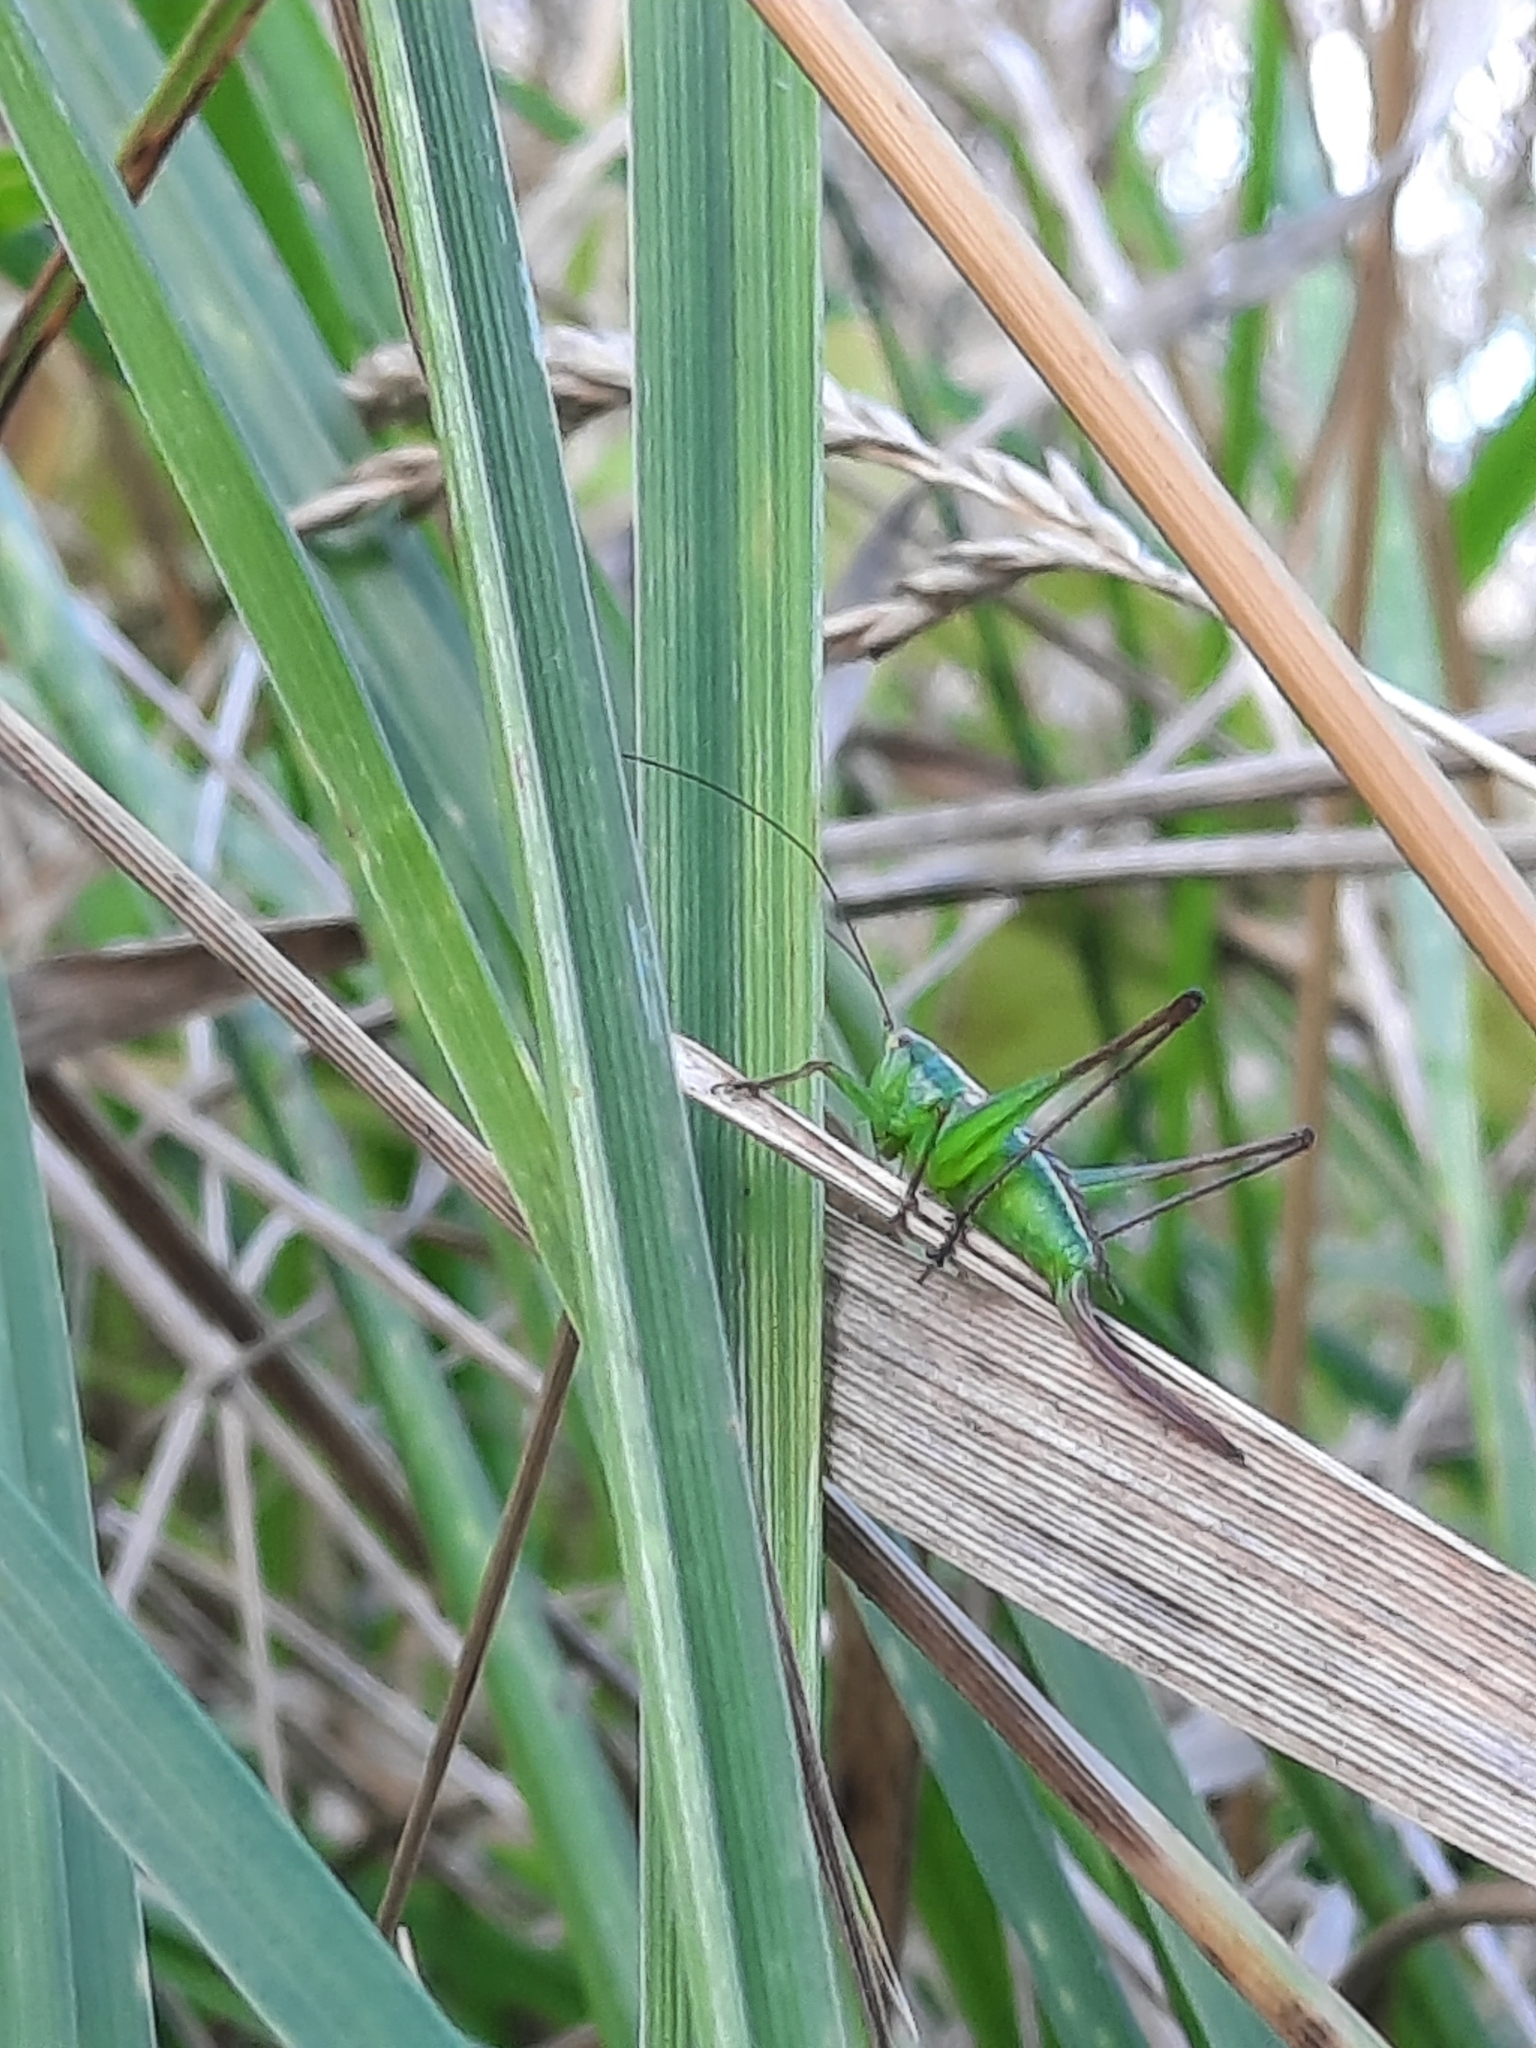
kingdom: Animalia
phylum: Arthropoda
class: Insecta
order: Orthoptera
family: Tettigoniidae
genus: Conocephalus
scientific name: Conocephalus bilineatus
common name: Small meadow katydid
